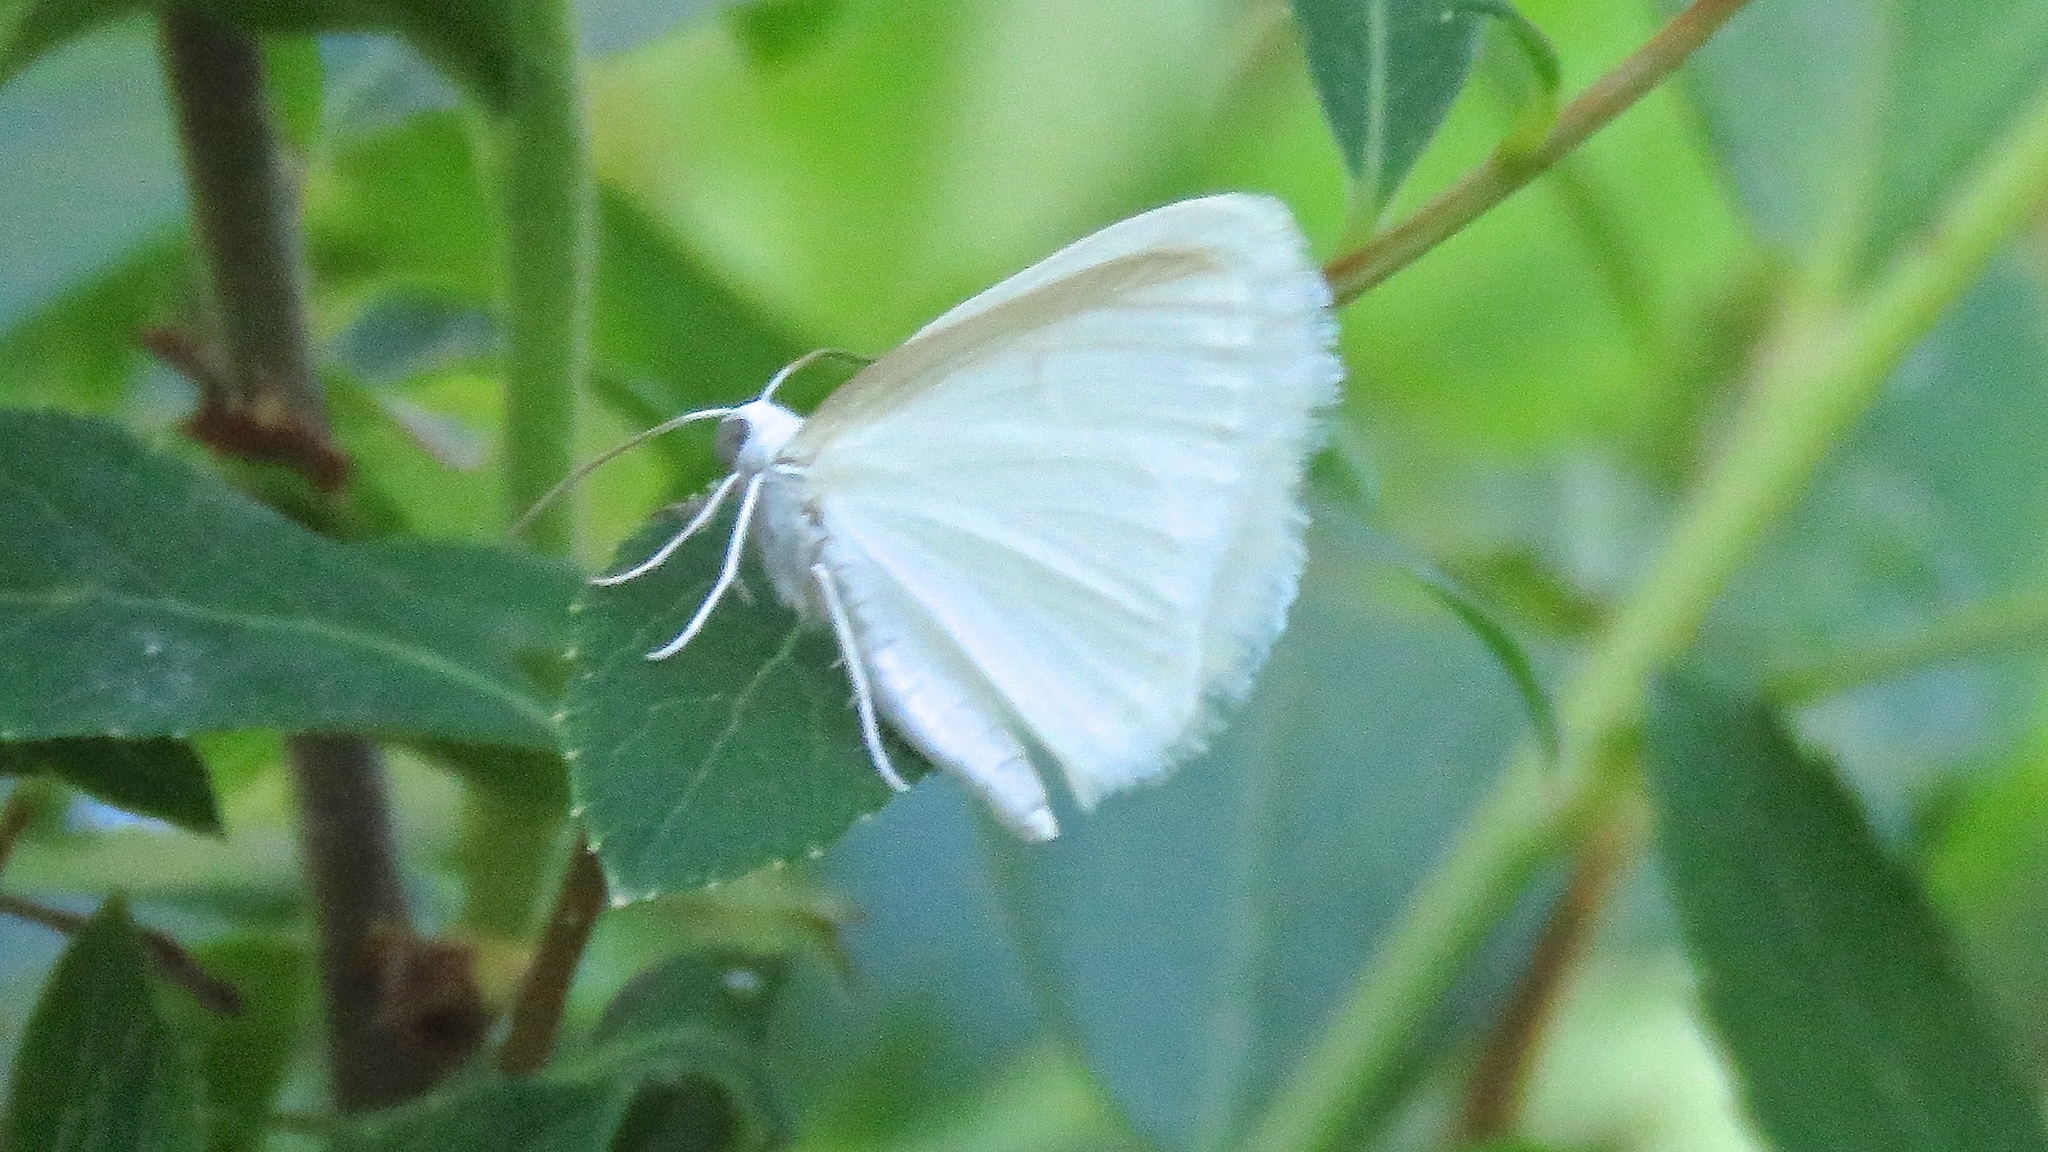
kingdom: Animalia
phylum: Arthropoda
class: Insecta
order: Lepidoptera
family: Geometridae
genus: Lomographa
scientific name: Lomographa vestaliata
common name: White spring moth
